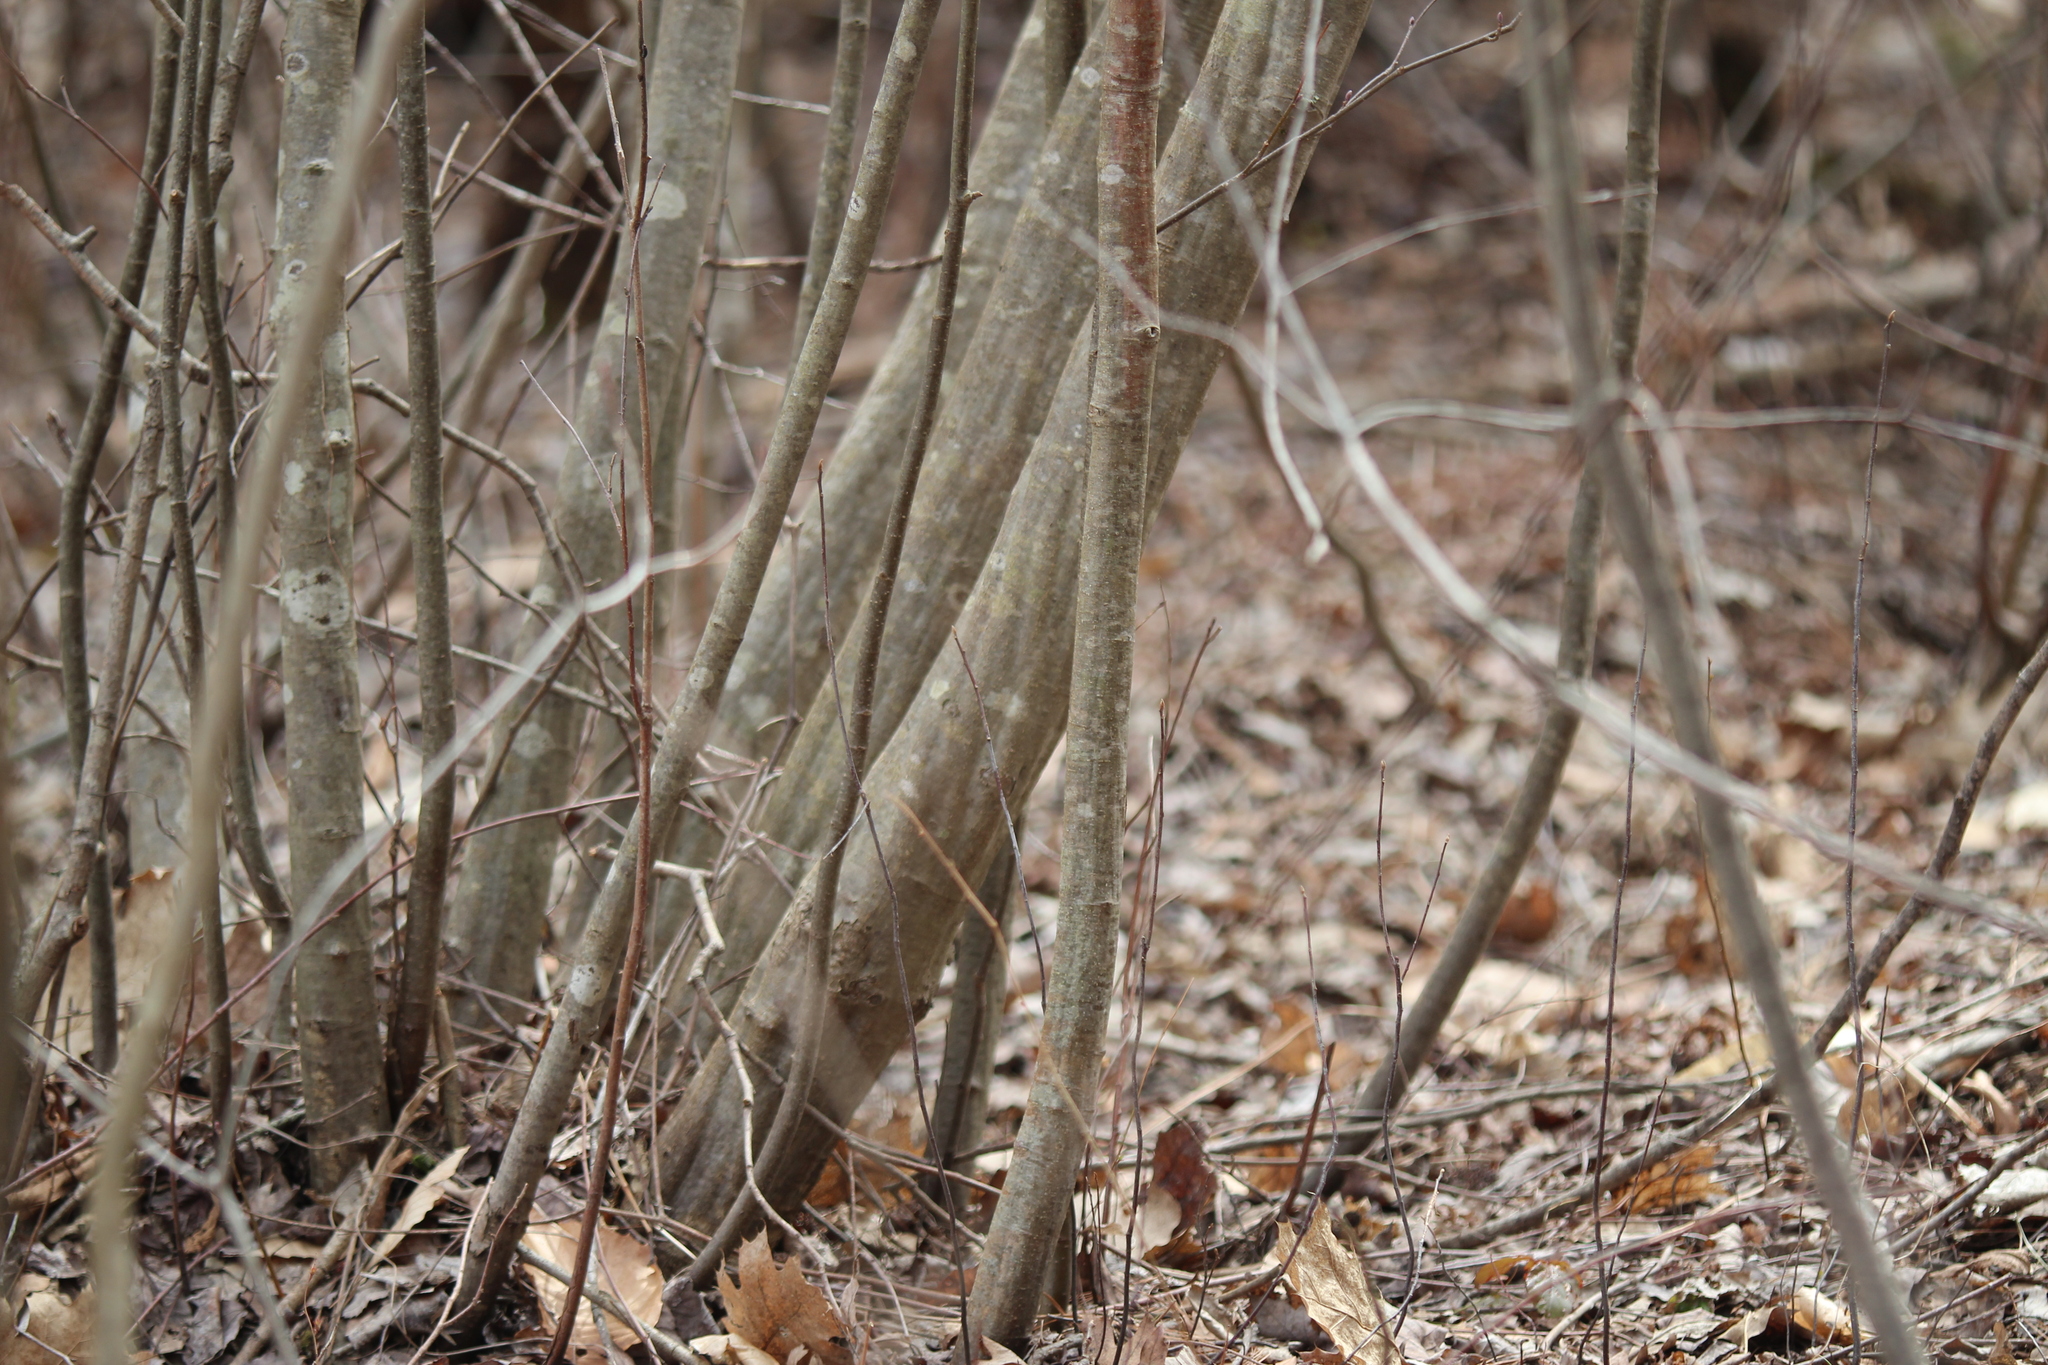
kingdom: Plantae
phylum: Tracheophyta
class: Magnoliopsida
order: Fagales
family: Betulaceae
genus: Carpinus
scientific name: Carpinus caroliniana
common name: American hornbeam
